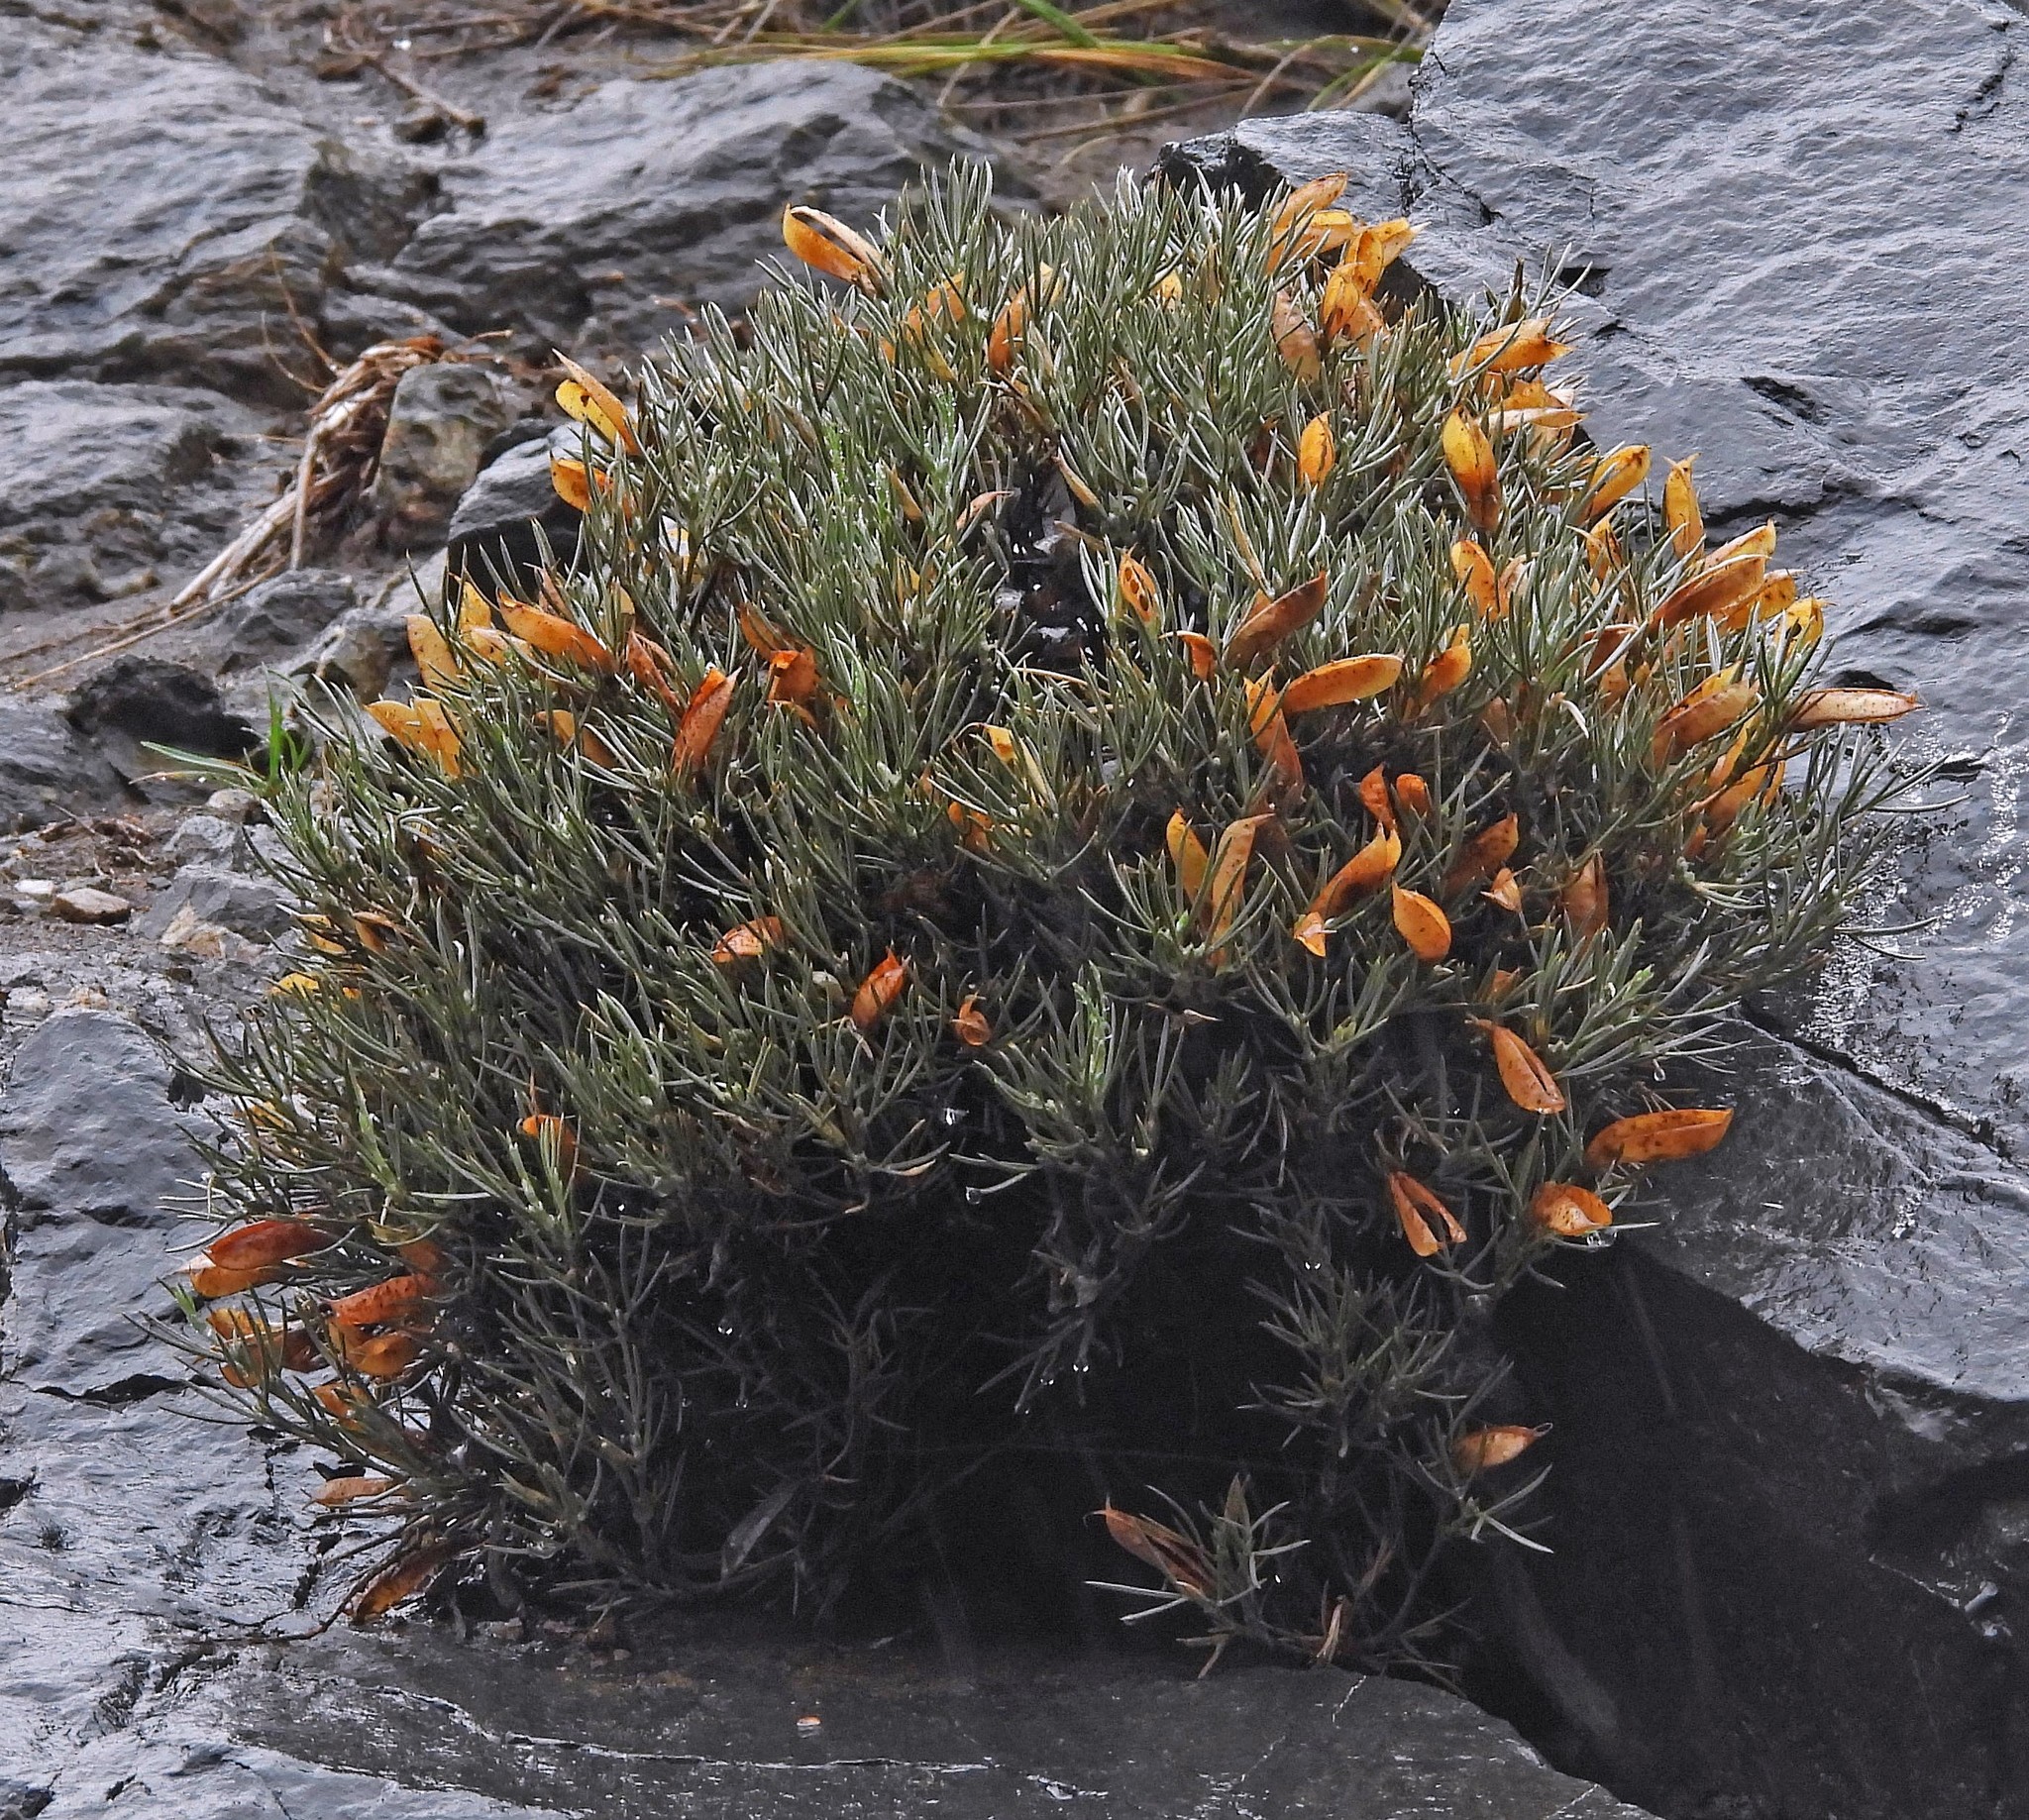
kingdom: Plantae
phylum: Tracheophyta
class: Magnoliopsida
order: Fabales
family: Fabaceae
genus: Anarthrophyllum
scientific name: Anarthrophyllum elegans
